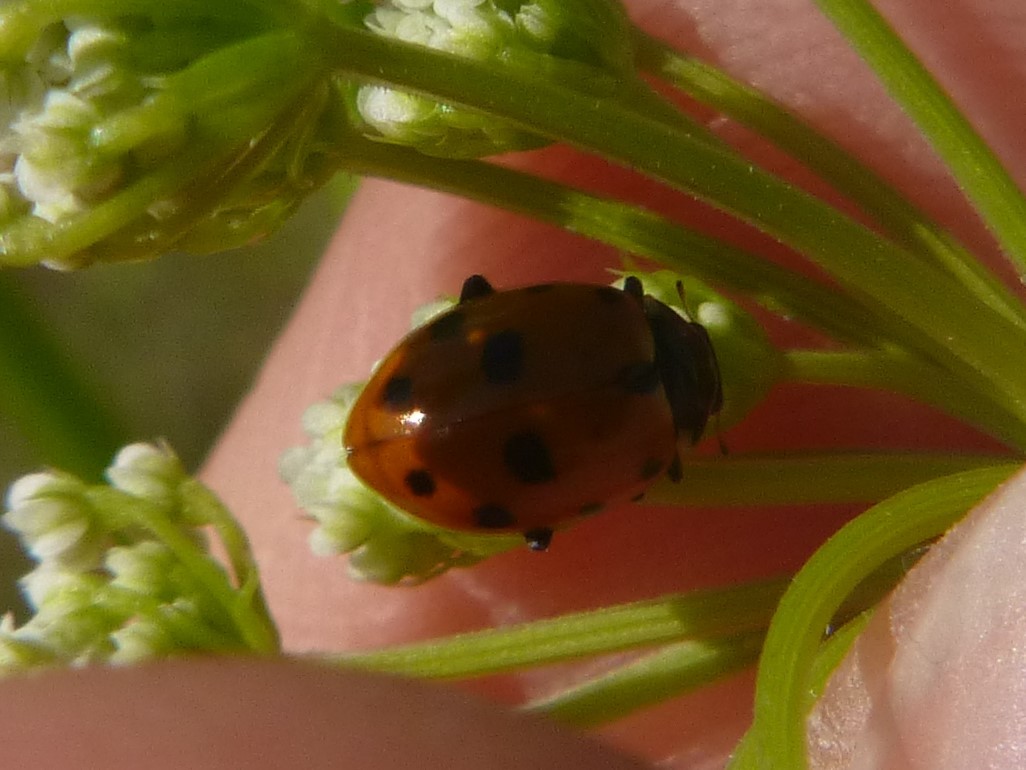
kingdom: Animalia
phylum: Arthropoda
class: Insecta
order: Coleoptera
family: Coccinellidae
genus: Hippodamia
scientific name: Hippodamia variegata
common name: Ladybird beetle
